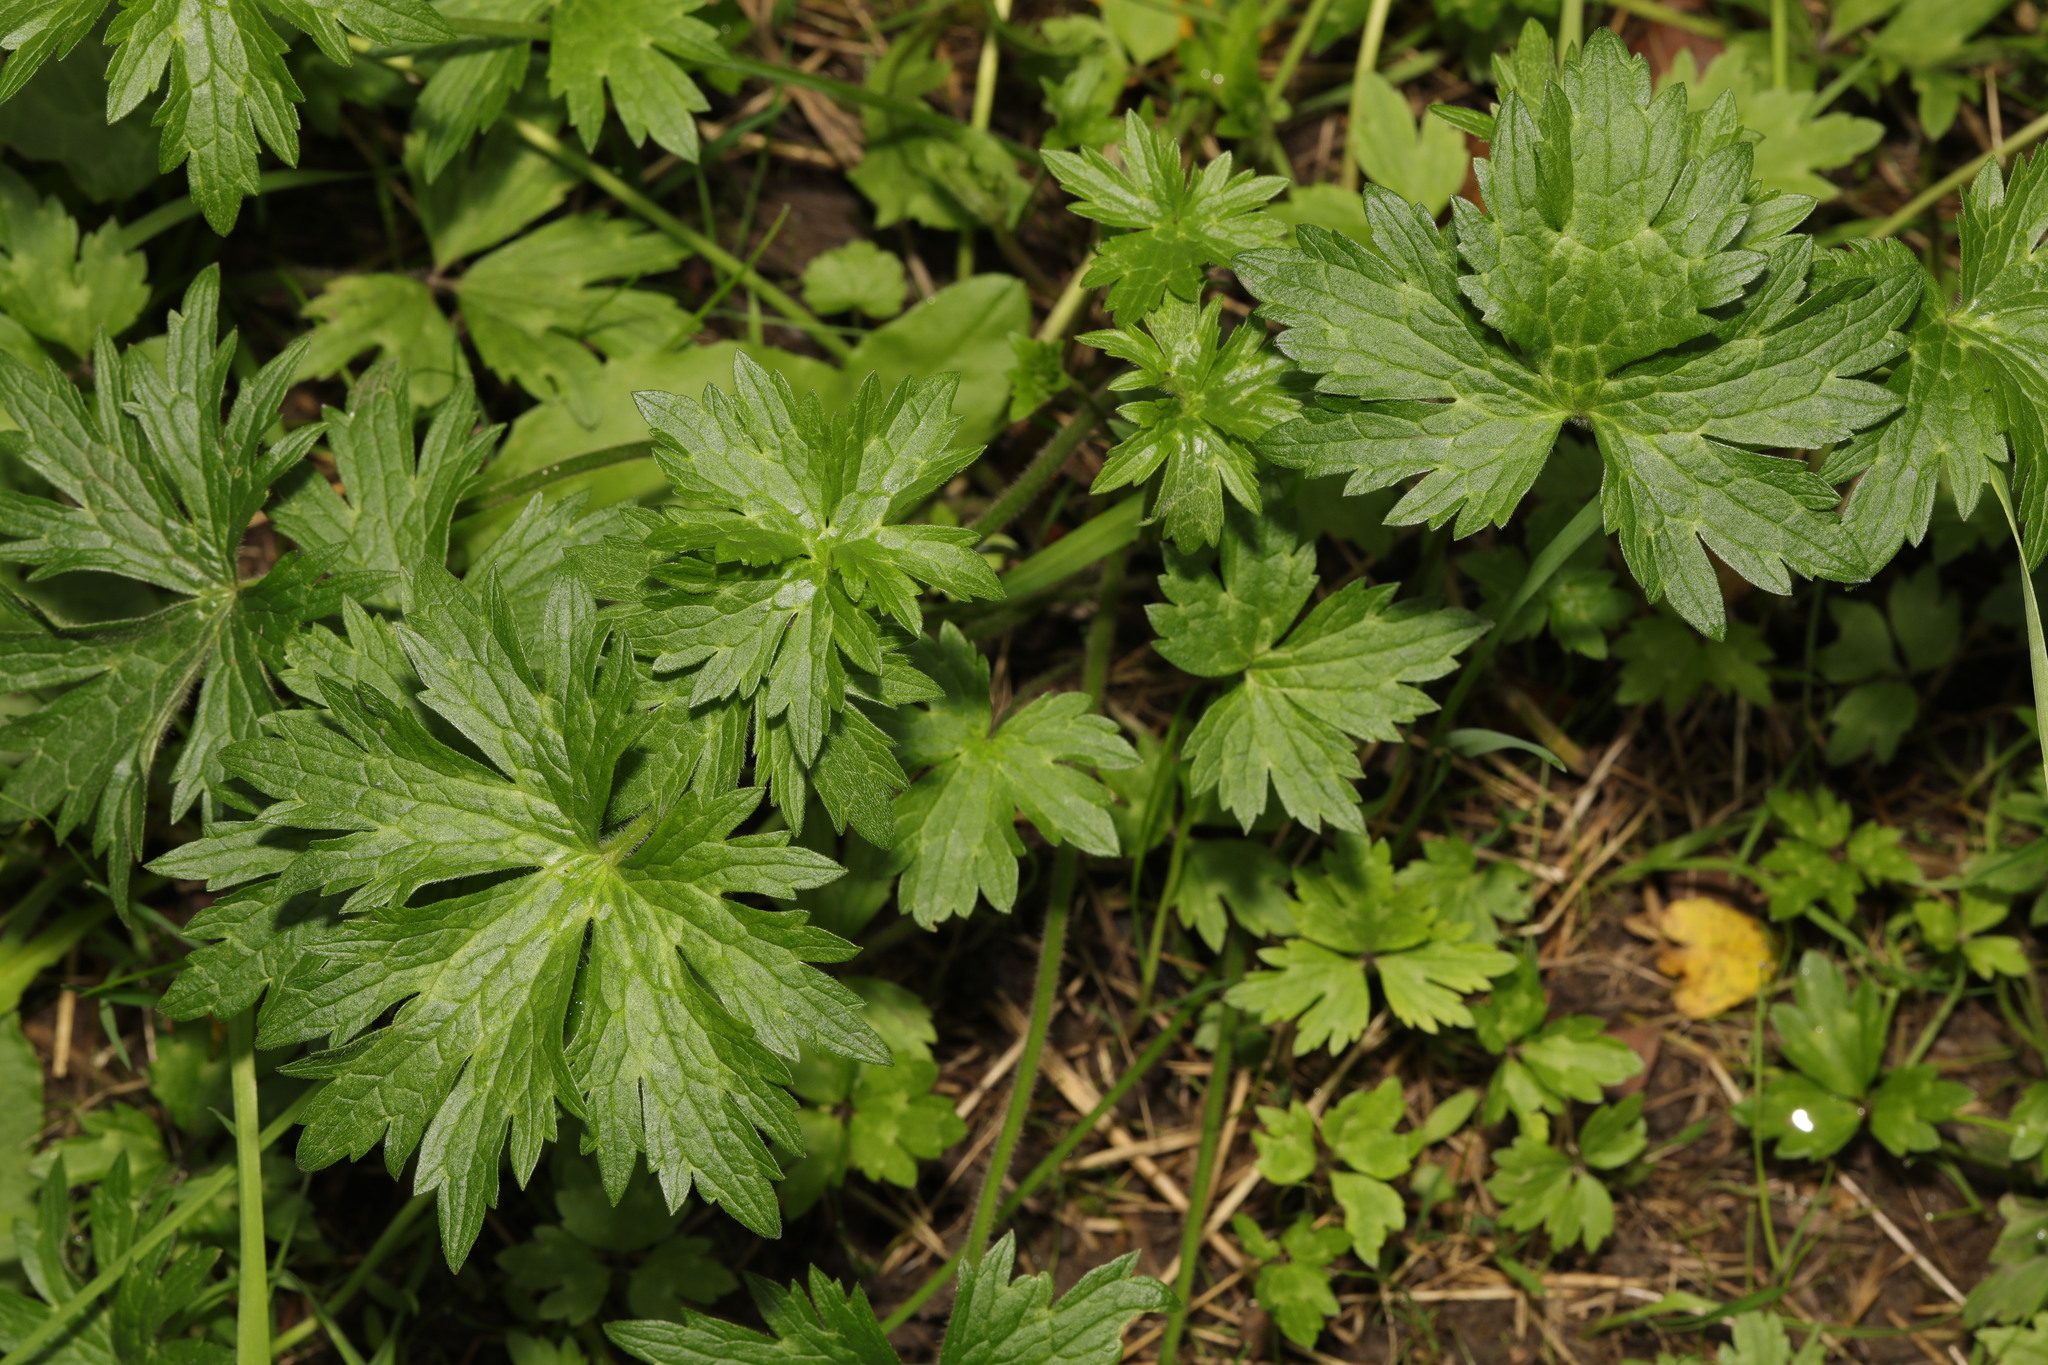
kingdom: Plantae
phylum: Tracheophyta
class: Magnoliopsida
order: Ranunculales
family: Ranunculaceae
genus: Ranunculus
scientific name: Ranunculus acris
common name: Meadow buttercup
